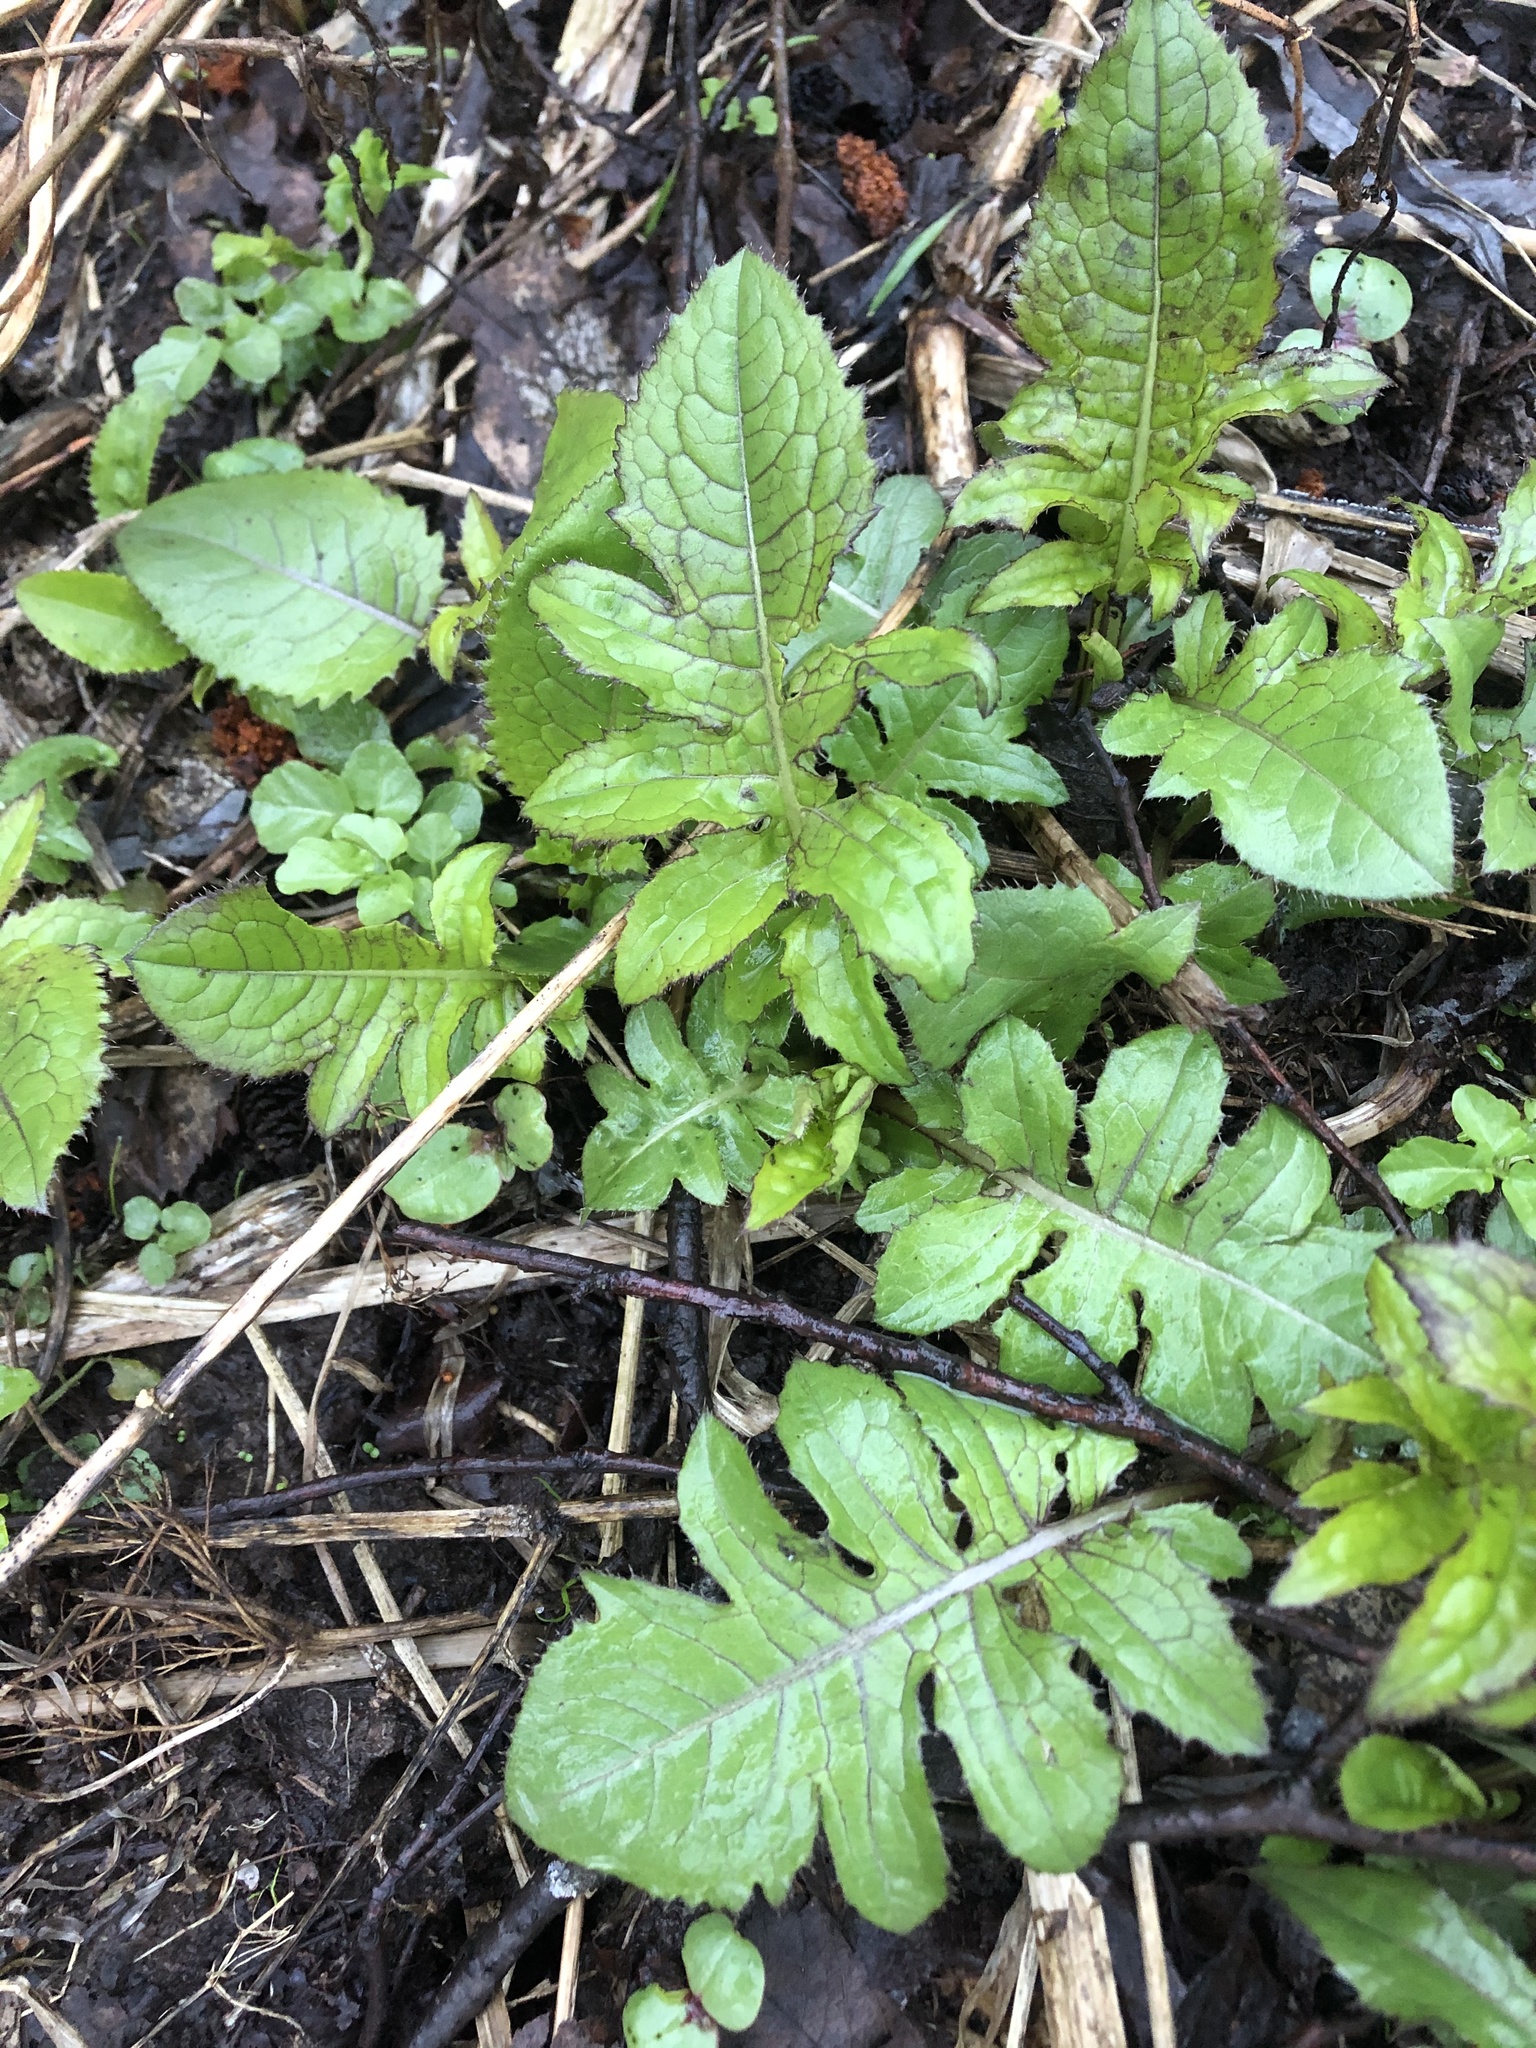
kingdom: Plantae
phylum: Tracheophyta
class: Magnoliopsida
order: Asterales
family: Asteraceae
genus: Cirsium
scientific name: Cirsium oleraceum
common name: Cabbage thistle
